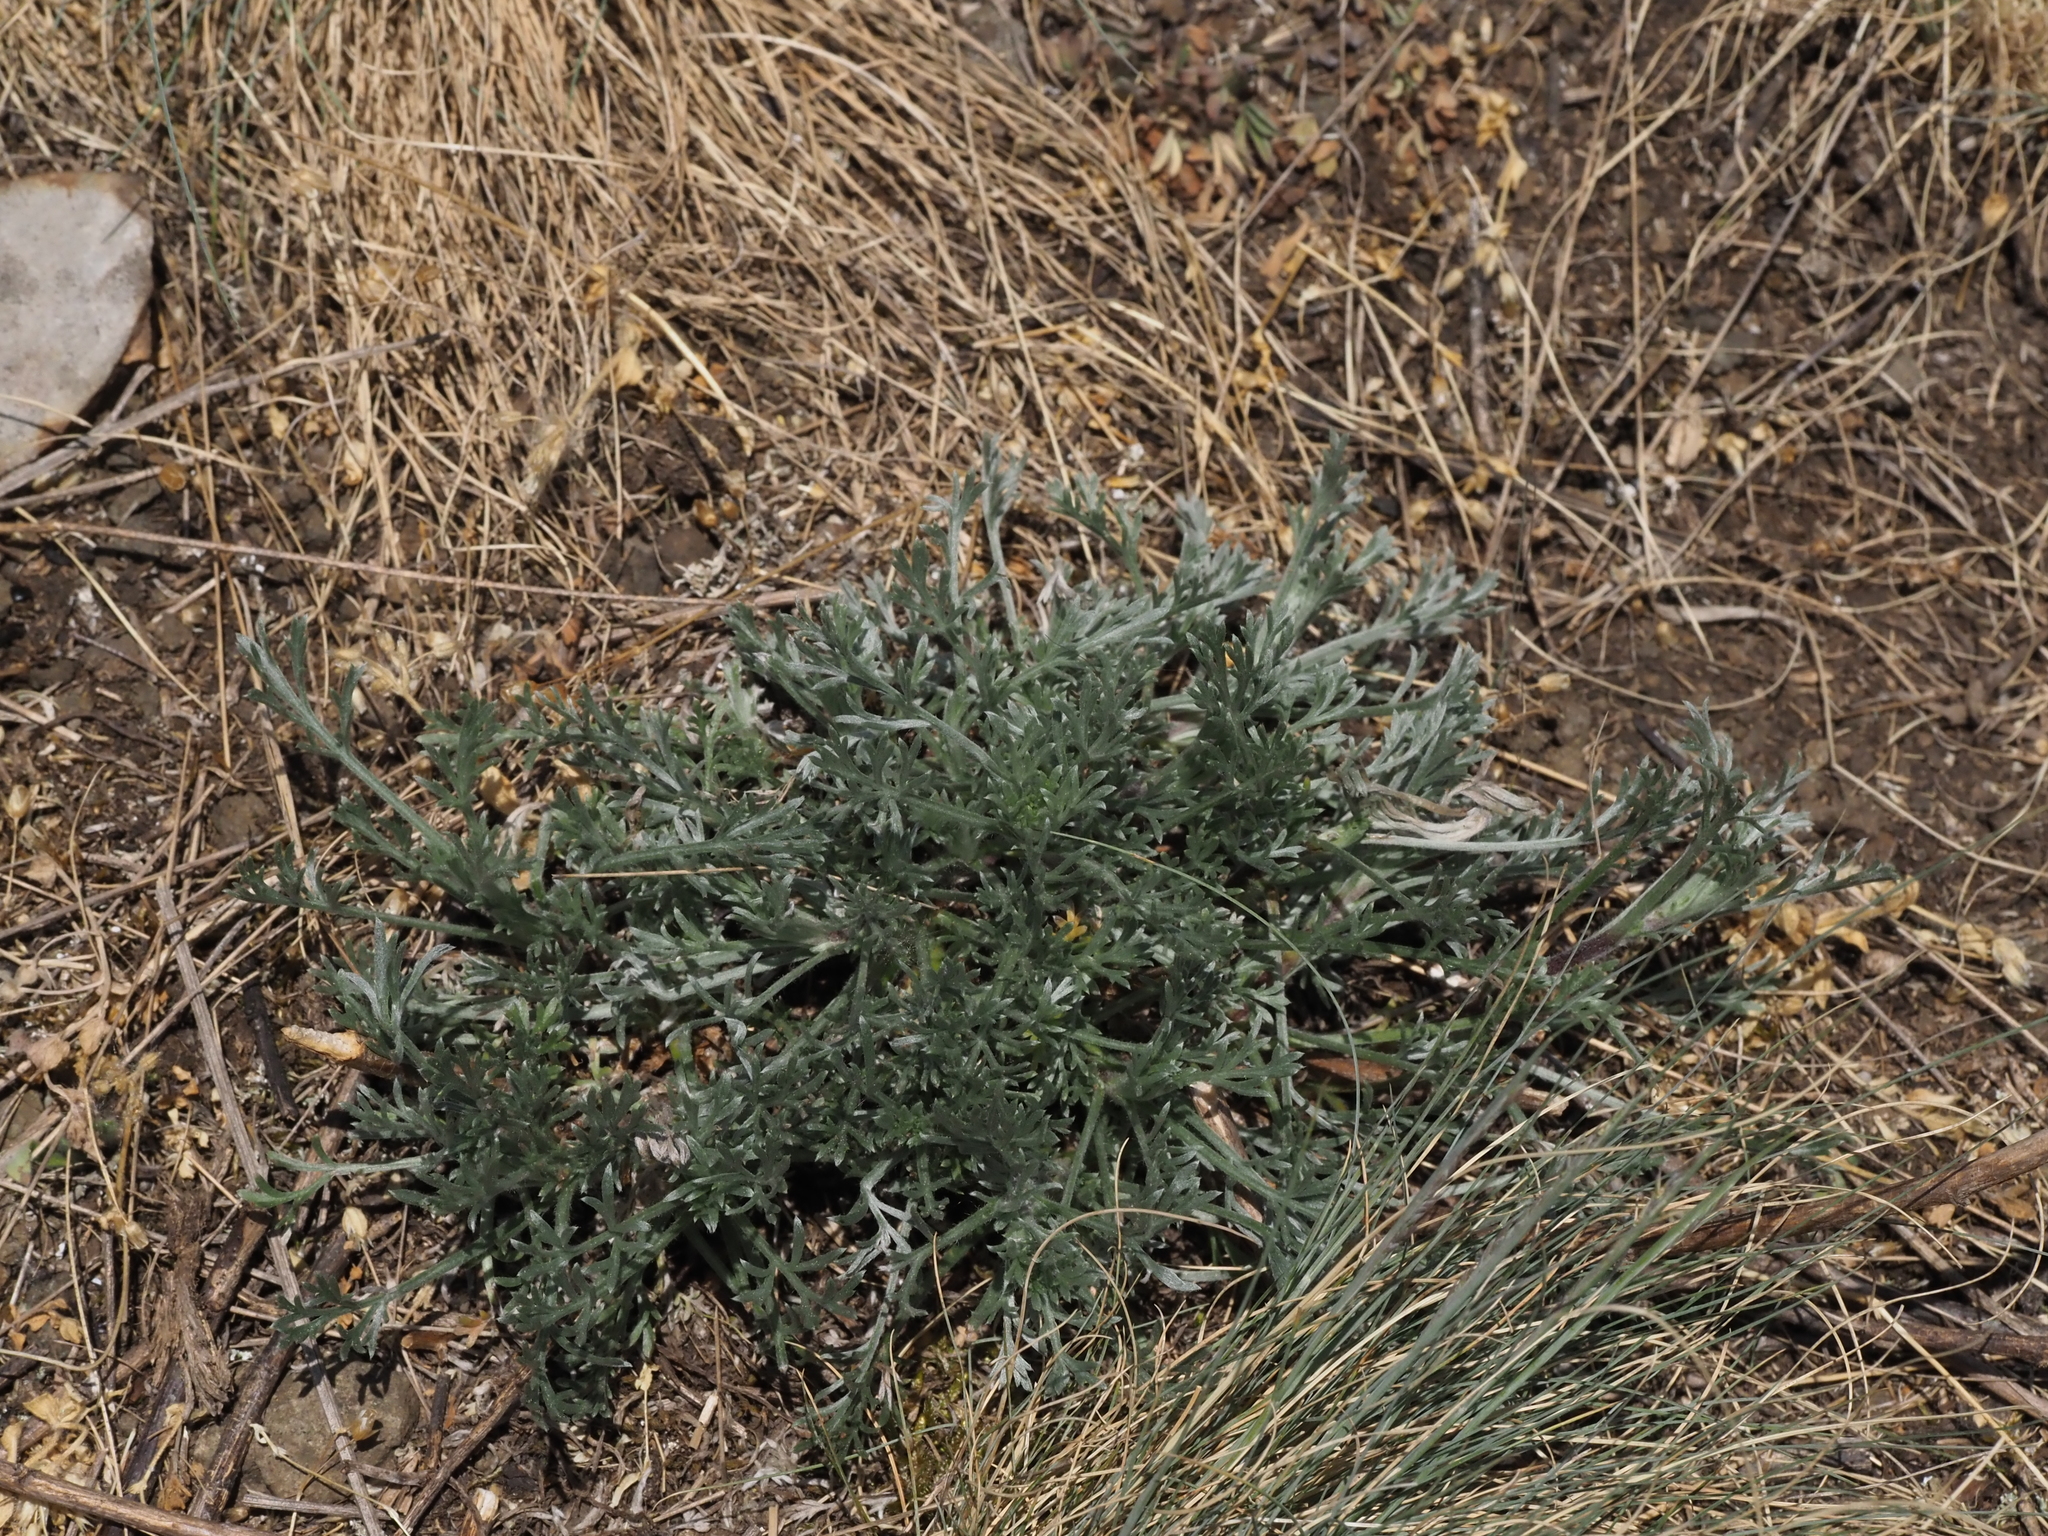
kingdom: Plantae
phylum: Tracheophyta
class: Magnoliopsida
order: Asterales
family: Asteraceae
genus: Centaurea
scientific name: Centaurea stoebe
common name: Spotted knapweed
